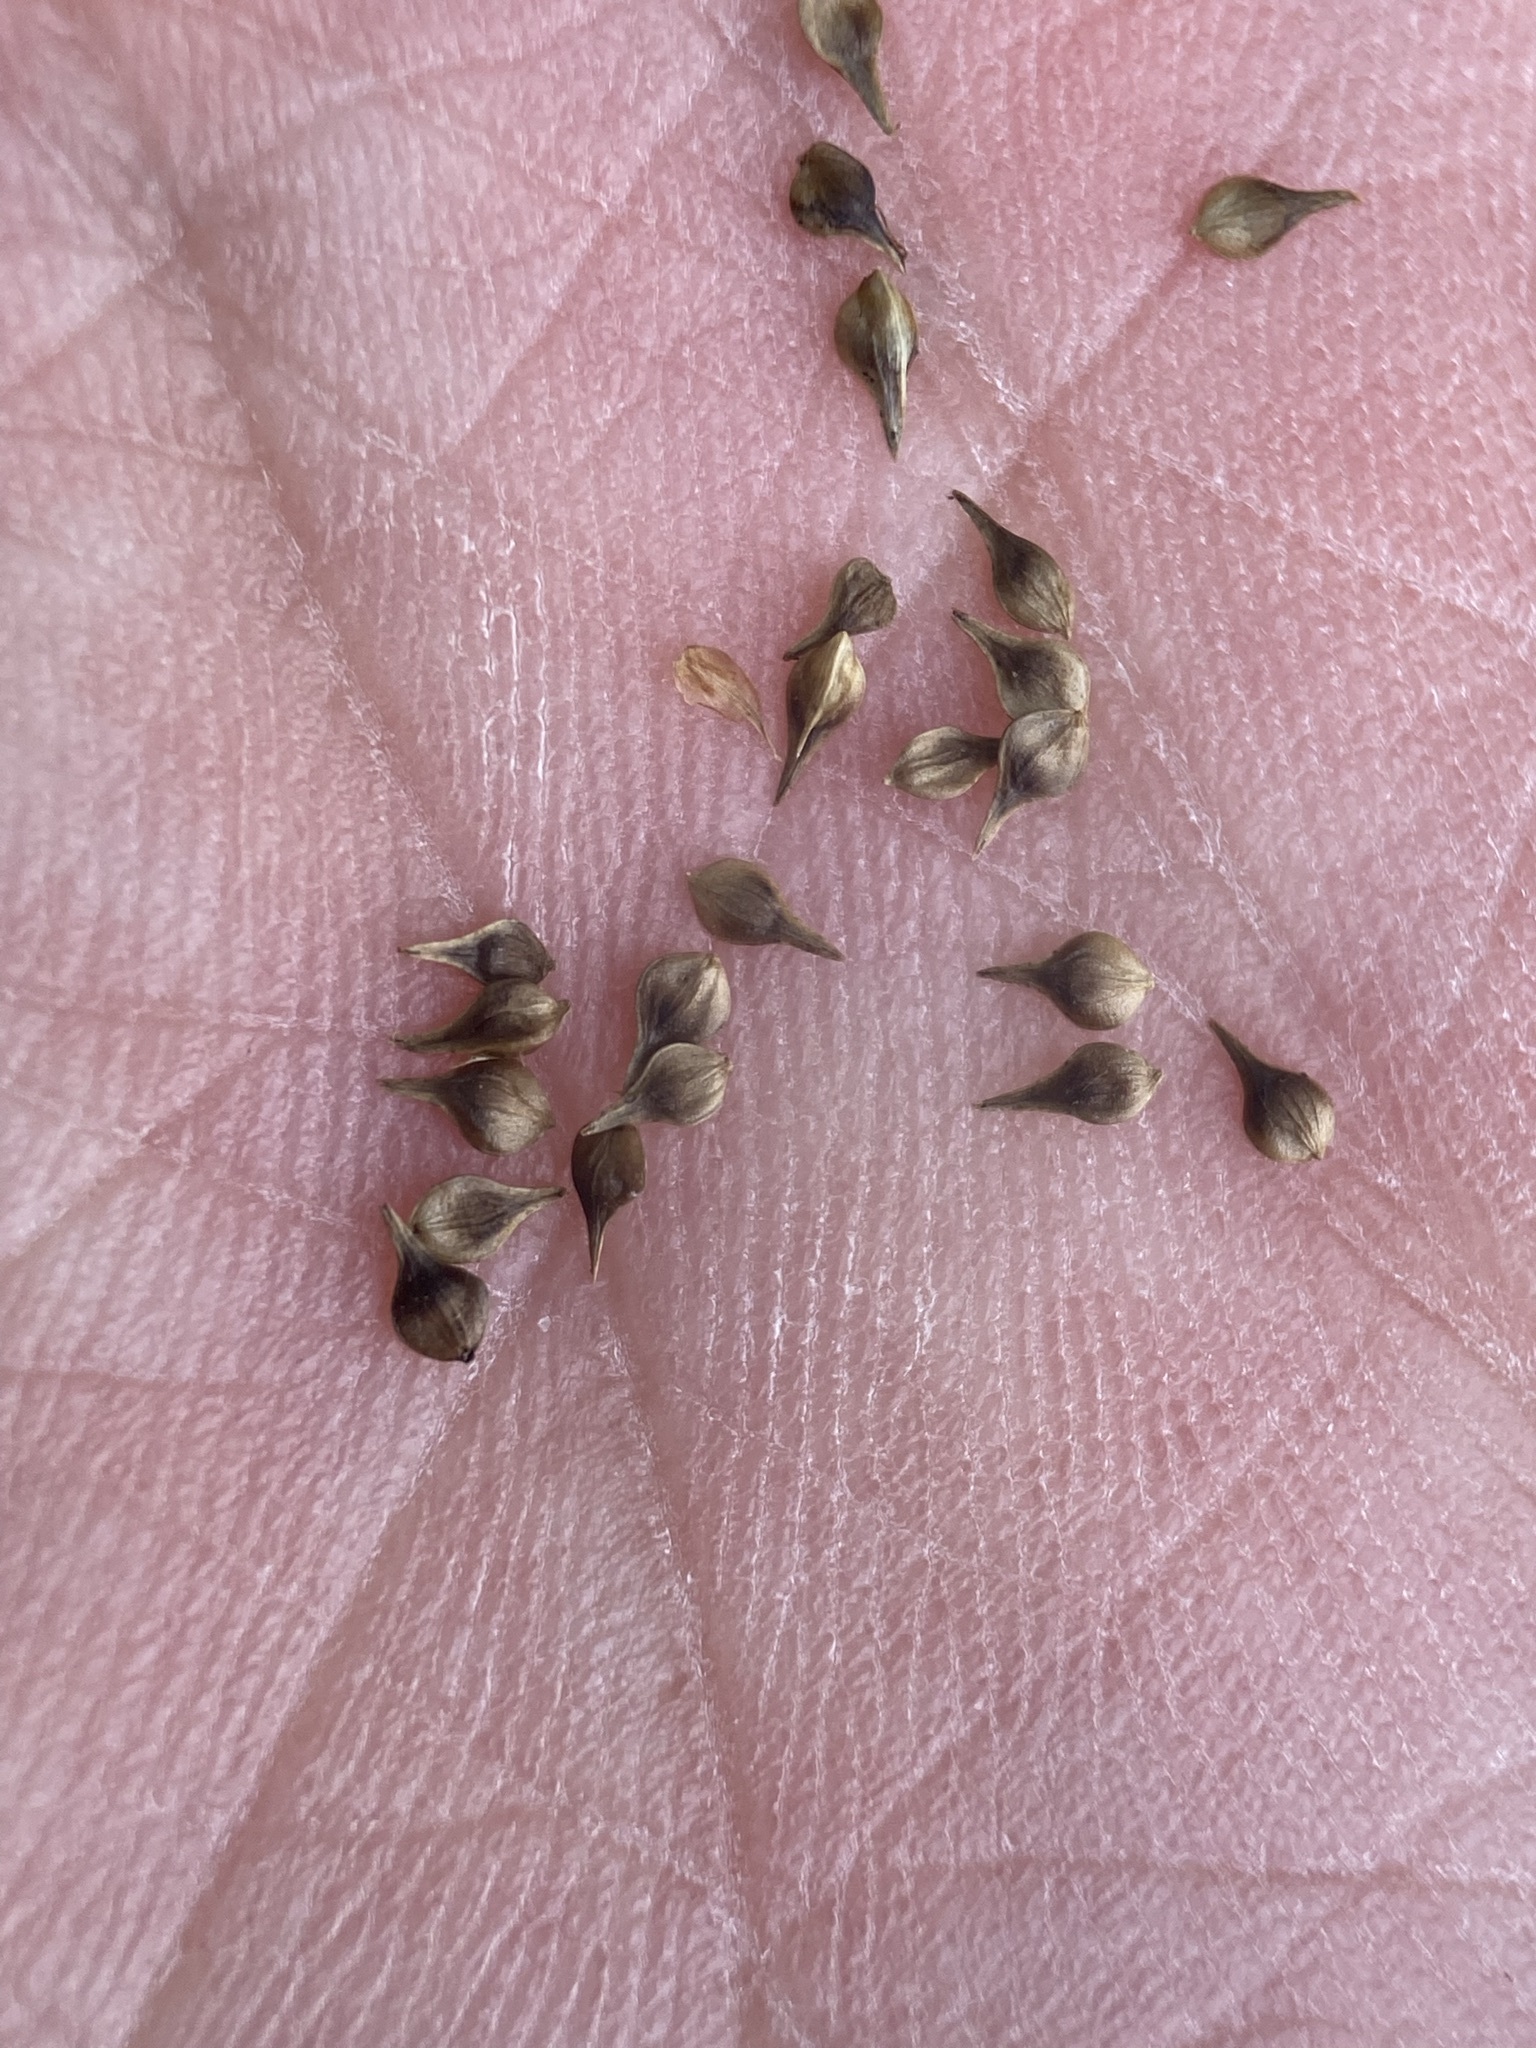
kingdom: Plantae
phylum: Tracheophyta
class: Liliopsida
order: Poales
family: Cyperaceae
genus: Carex
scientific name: Carex vulpinoidea
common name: American fox-sedge
